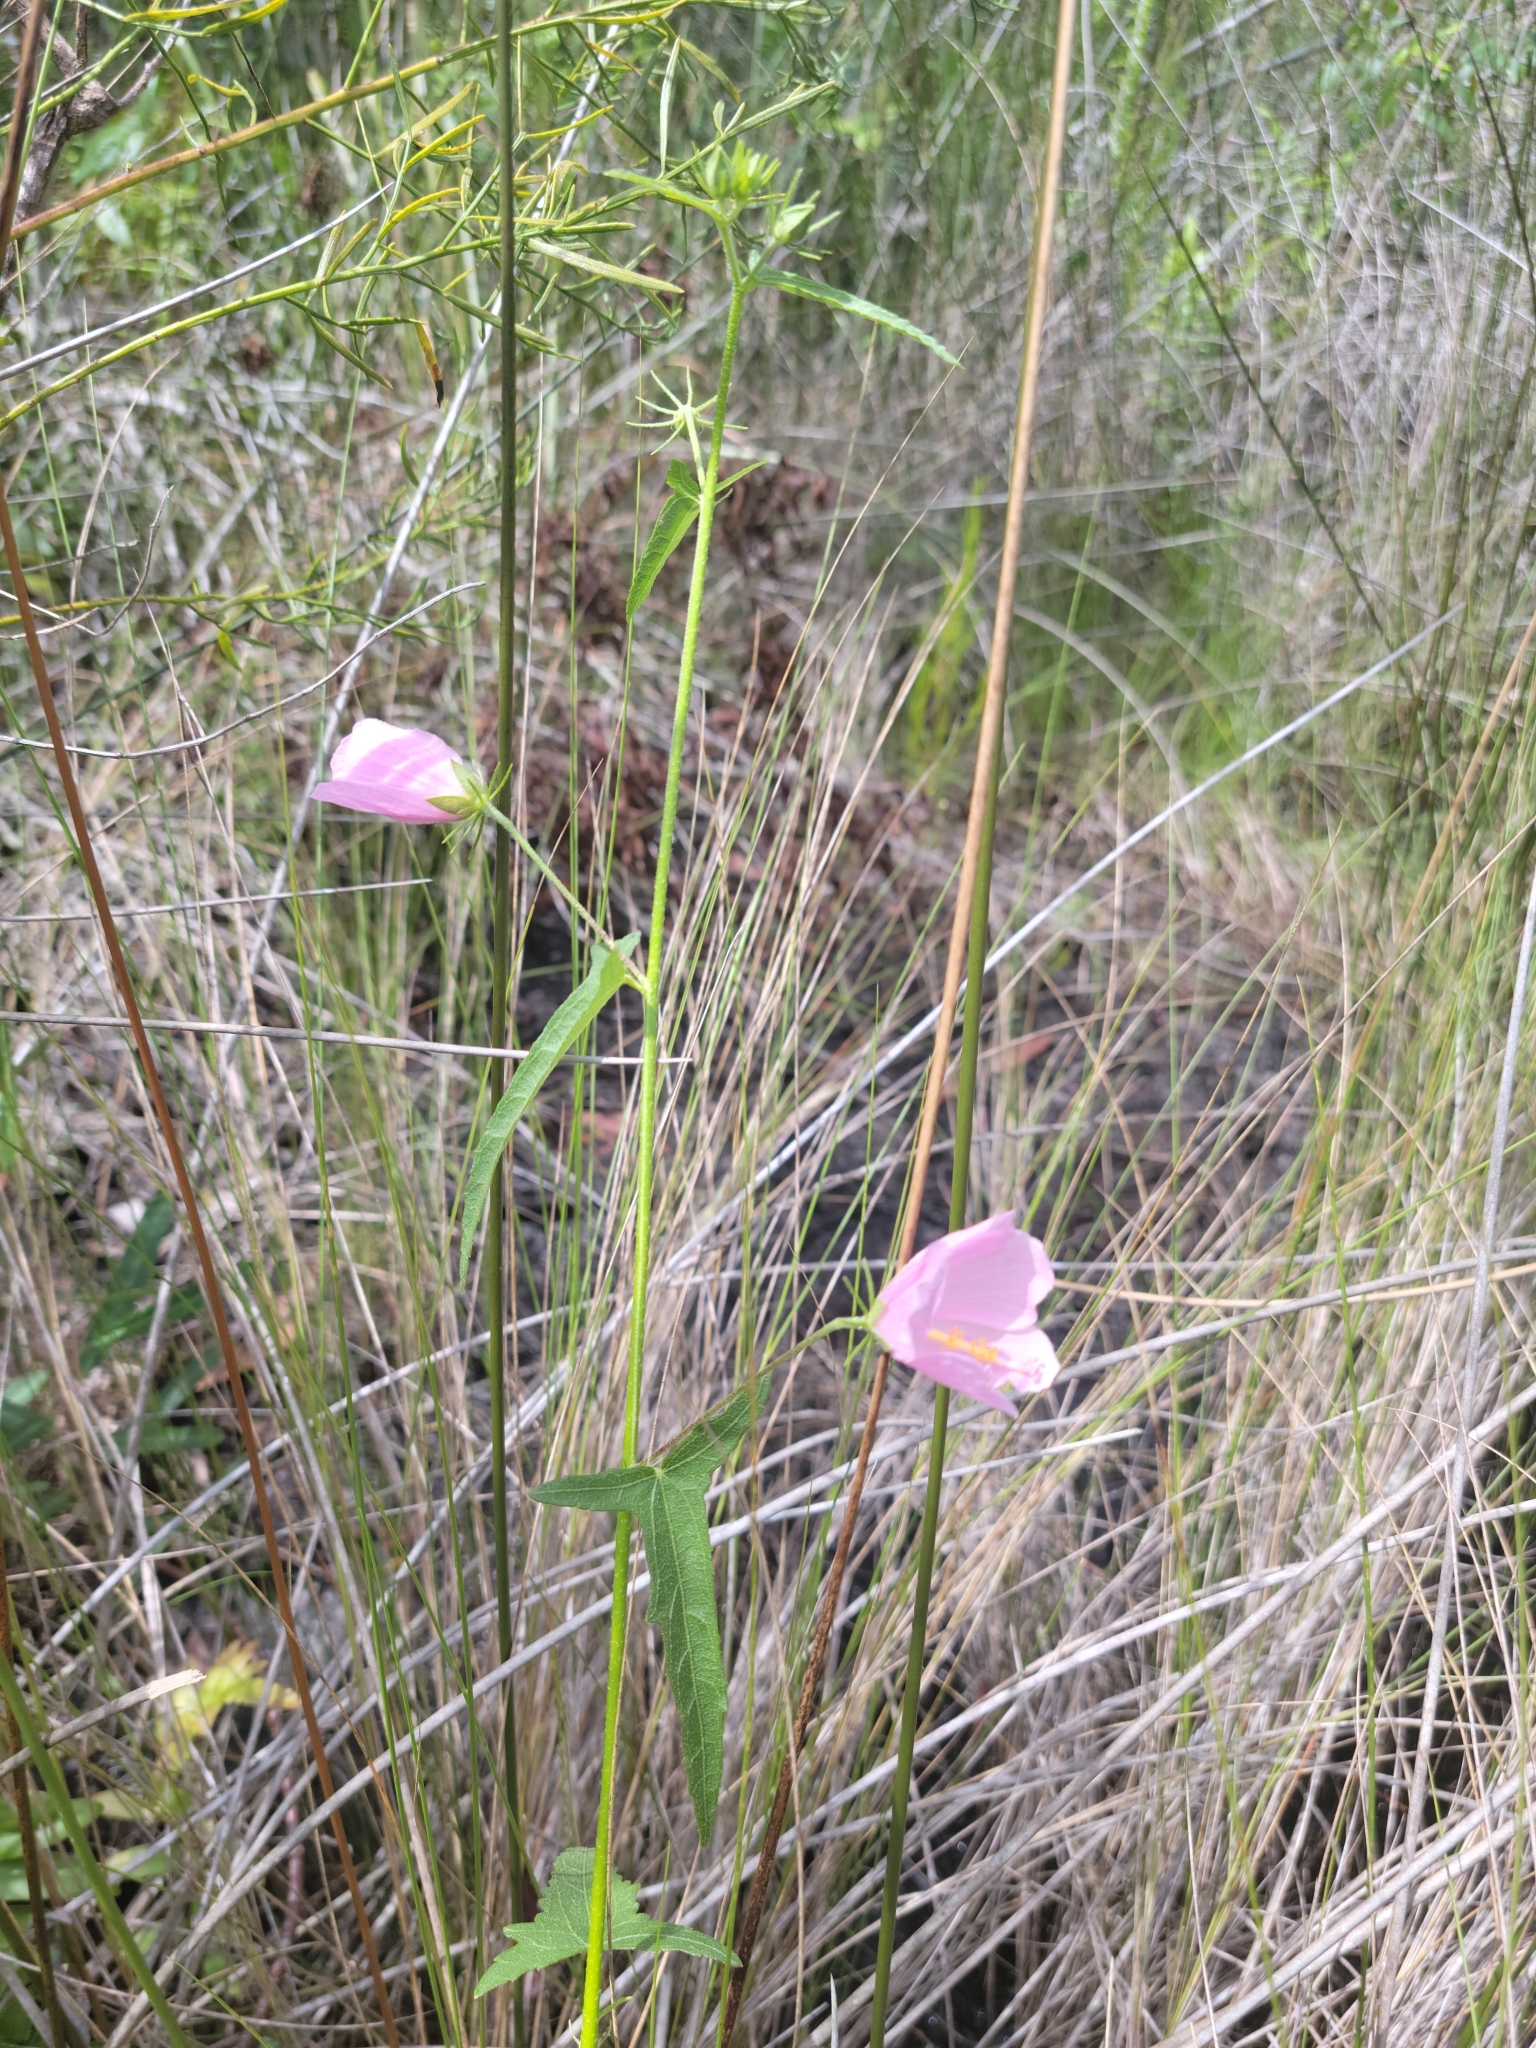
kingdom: Plantae
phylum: Tracheophyta
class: Magnoliopsida
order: Malvales
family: Malvaceae
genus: Kosteletzkya
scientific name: Kosteletzkya pentacarpos
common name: Virginia saltmarsh mallow
